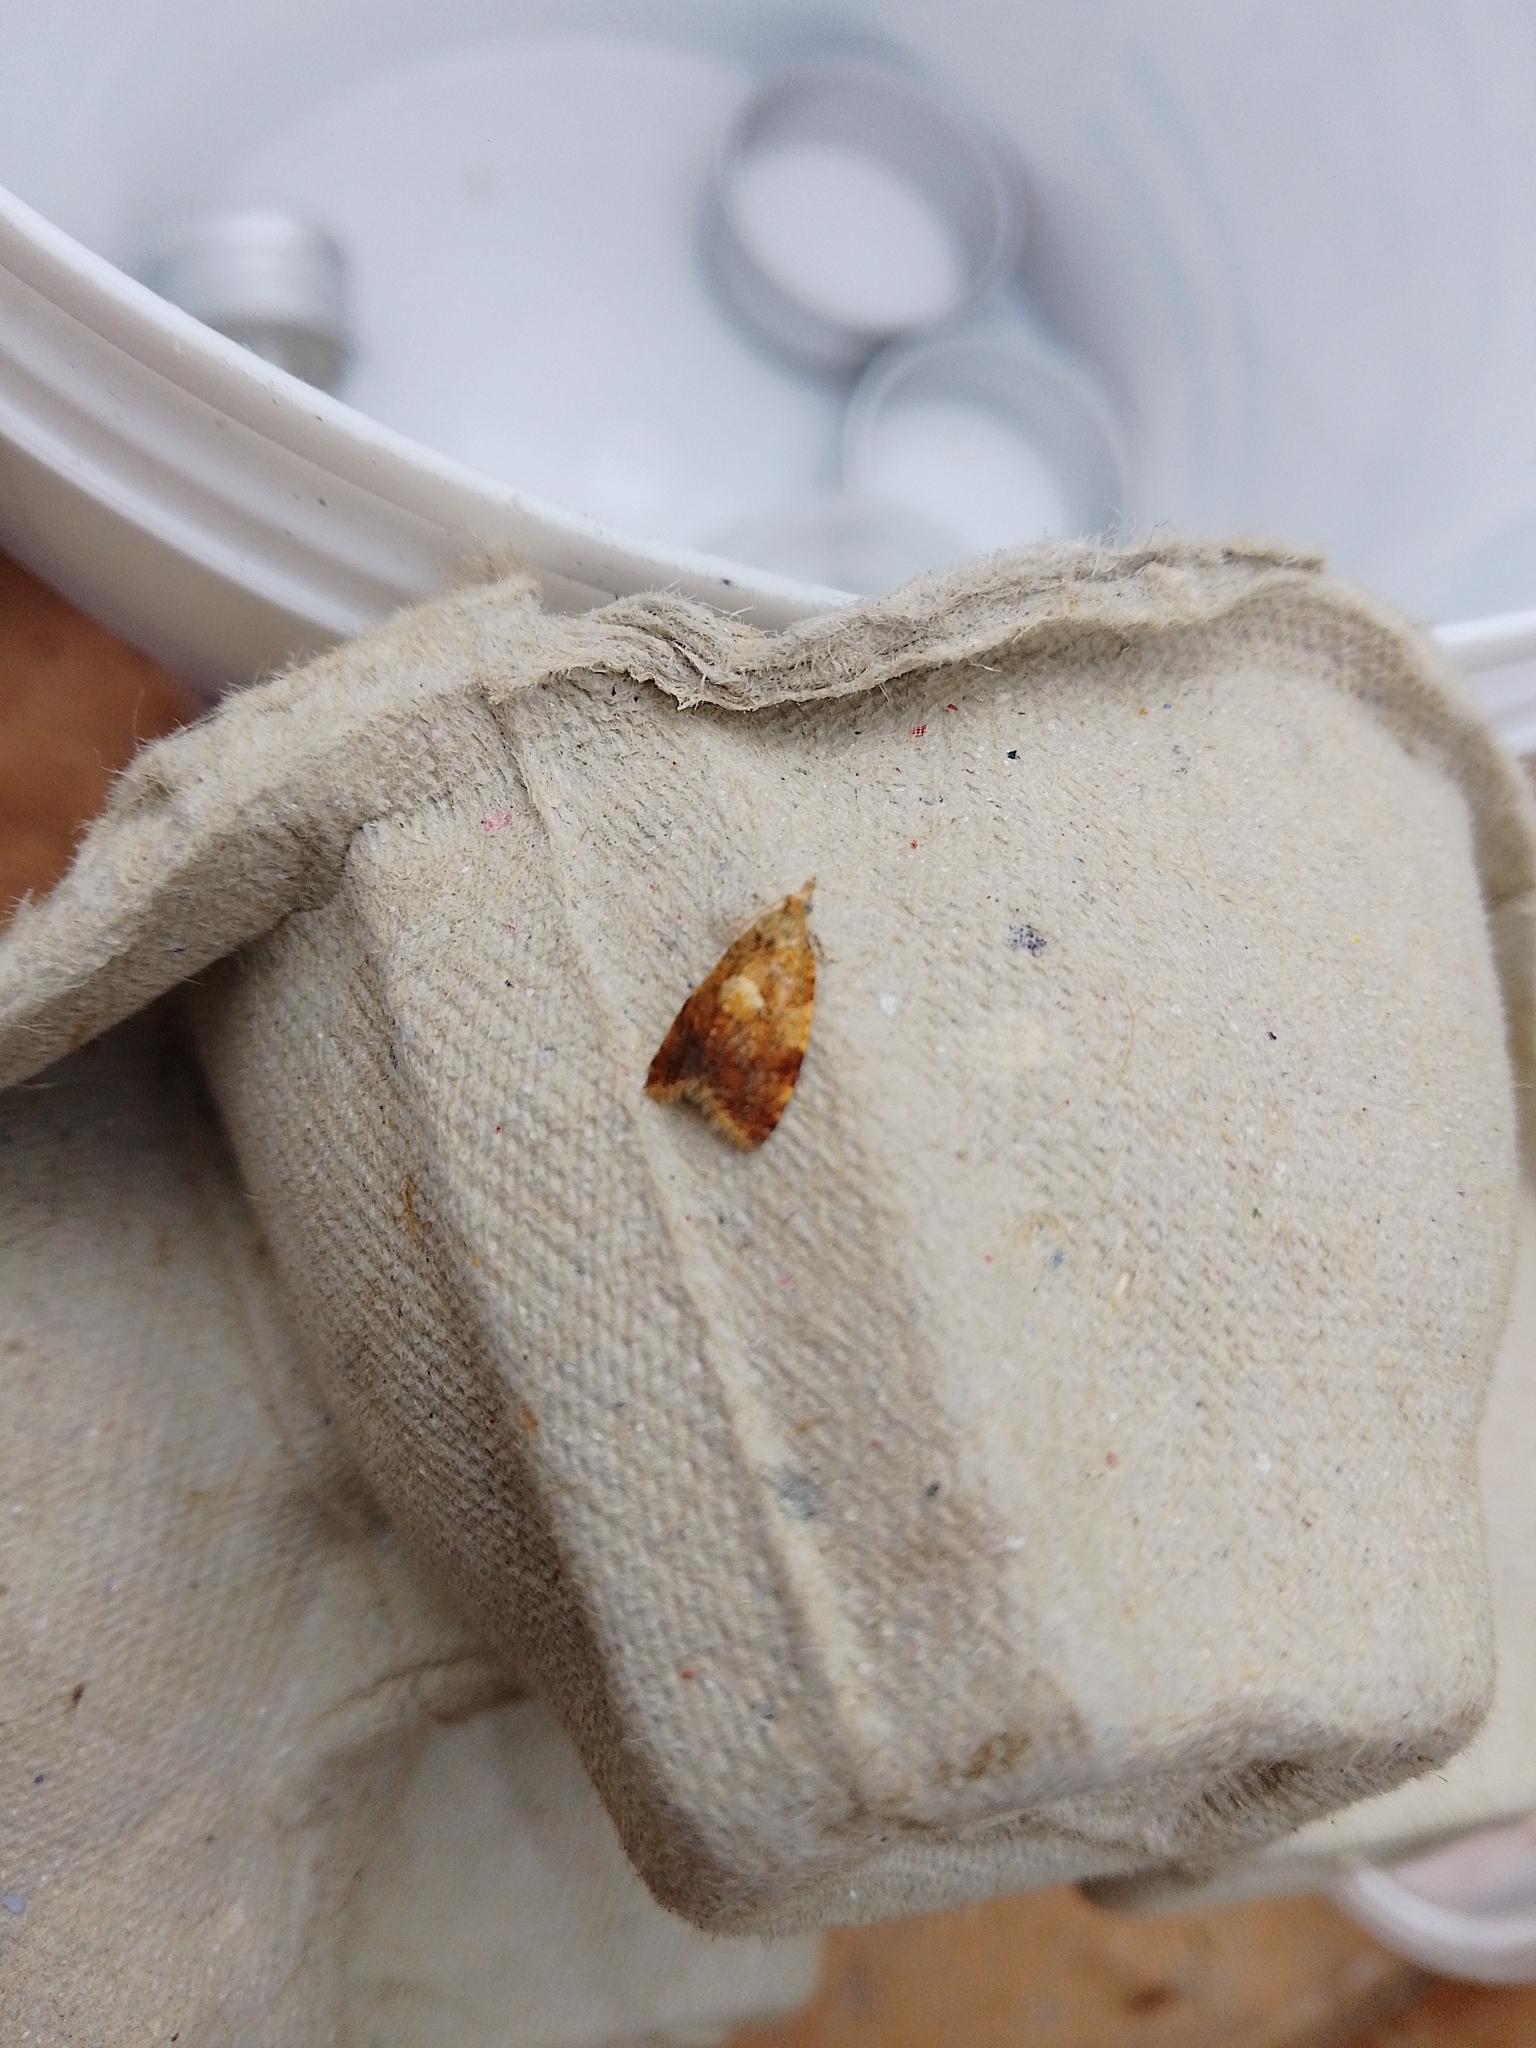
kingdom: Animalia
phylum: Arthropoda
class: Insecta
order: Lepidoptera
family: Tortricidae
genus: Pseudargyrotoza
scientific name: Pseudargyrotoza conwagana
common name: Yellow-spot twist
